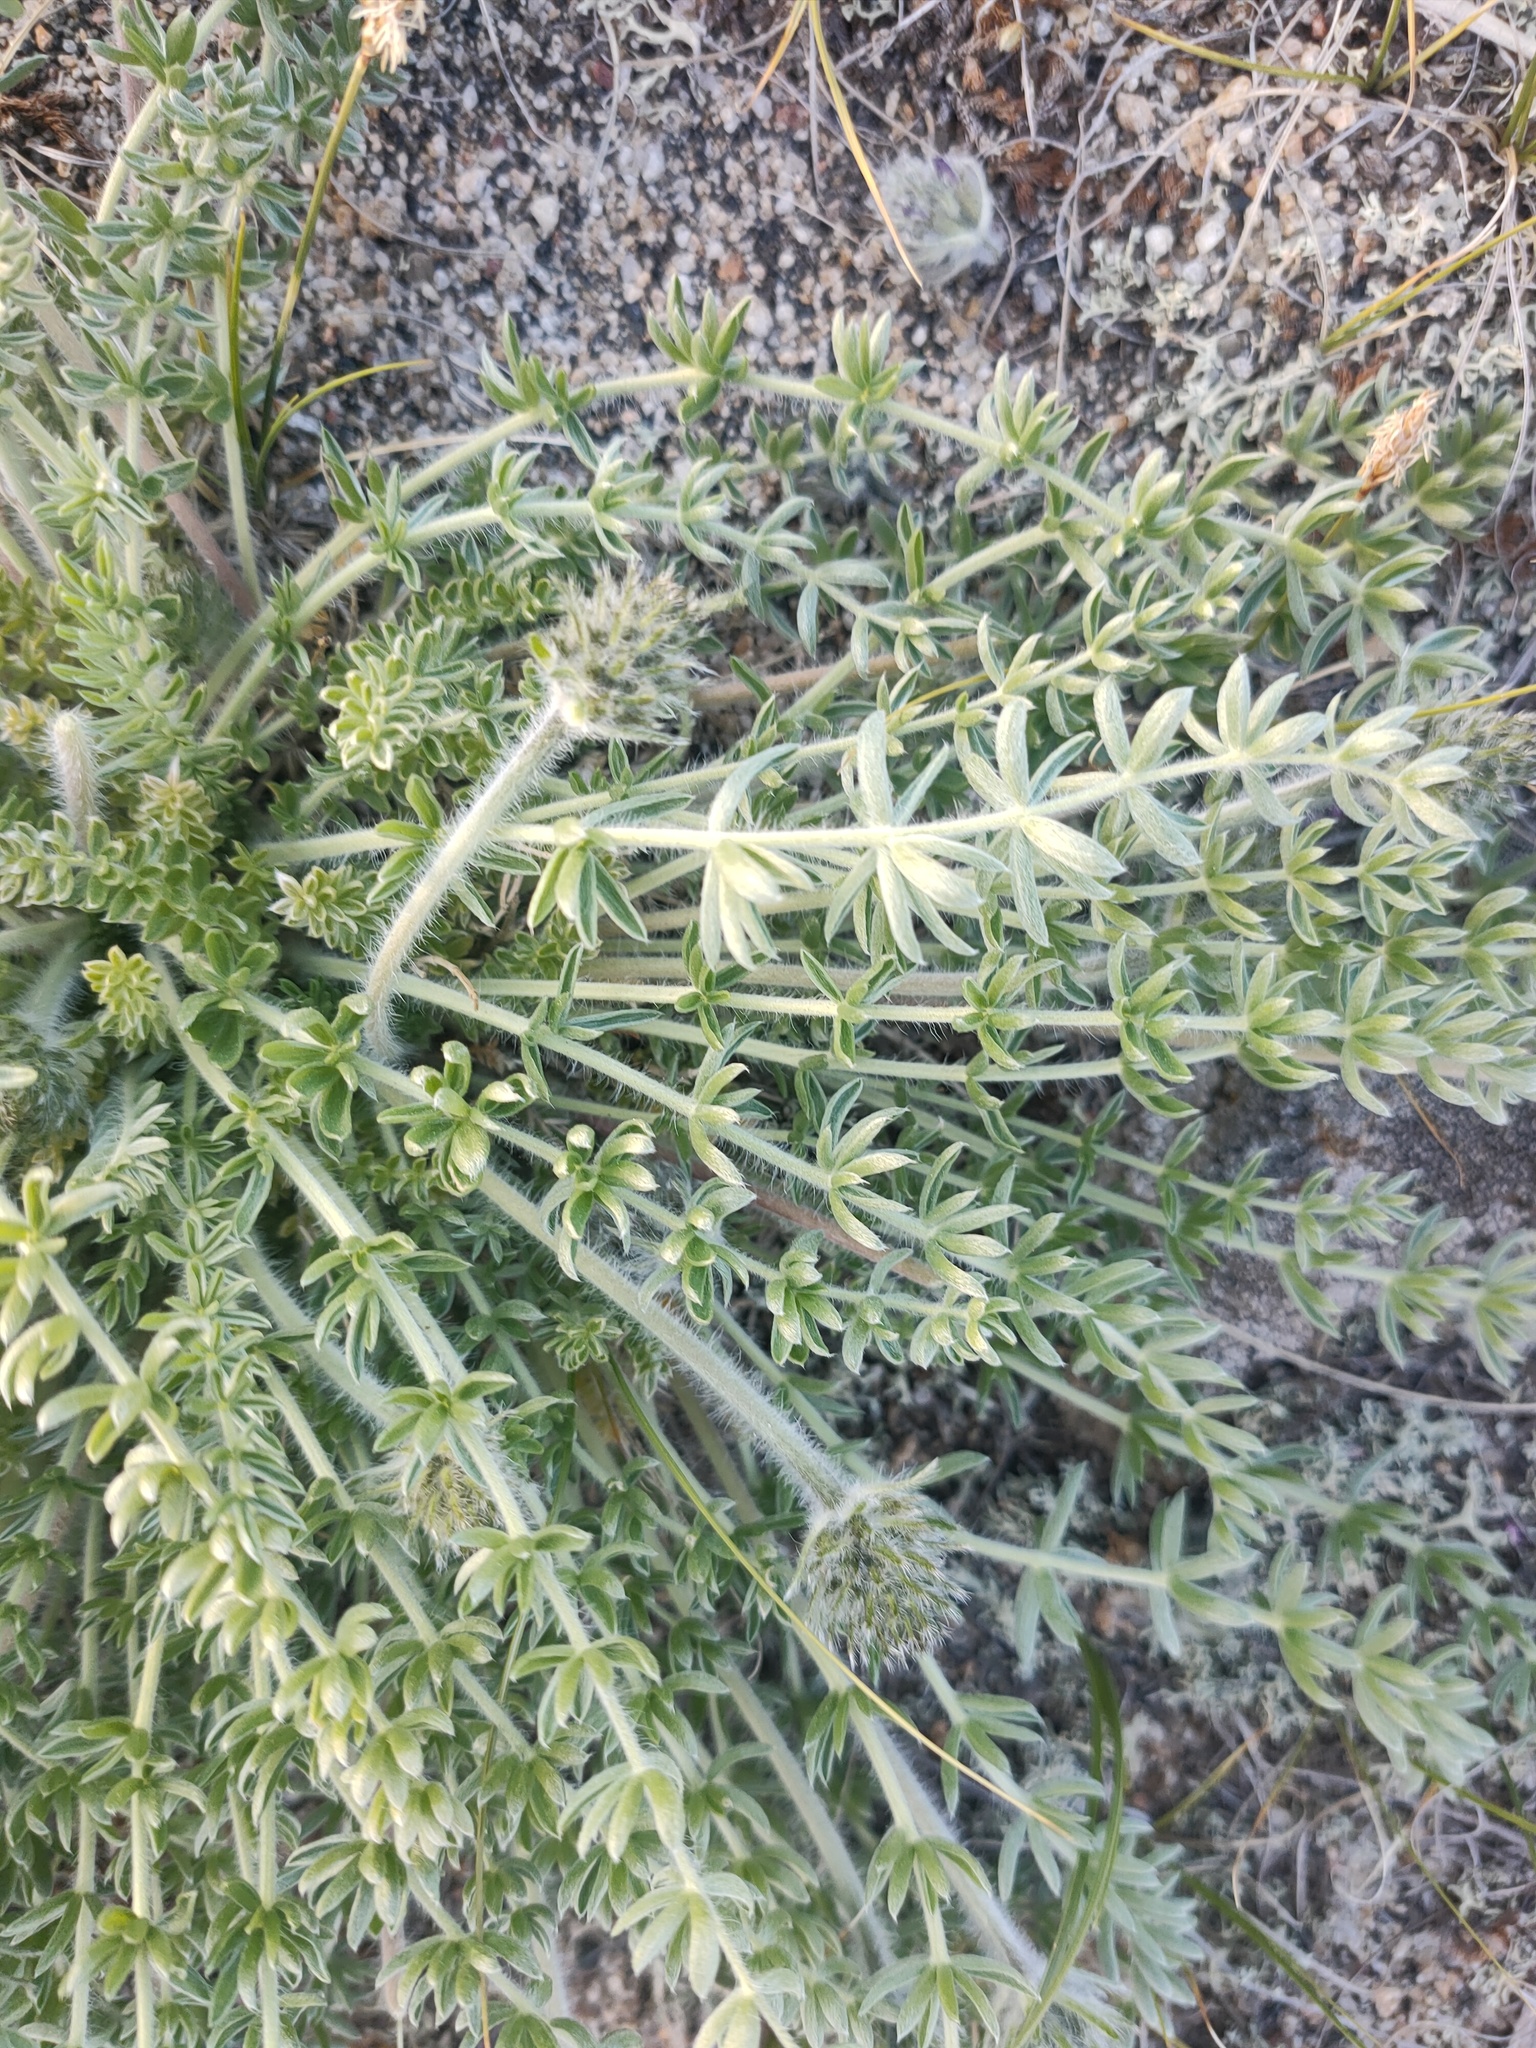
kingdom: Plantae
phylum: Tracheophyta
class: Magnoliopsida
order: Fabales
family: Fabaceae
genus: Oxytropis
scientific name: Oxytropis turczaninovii
